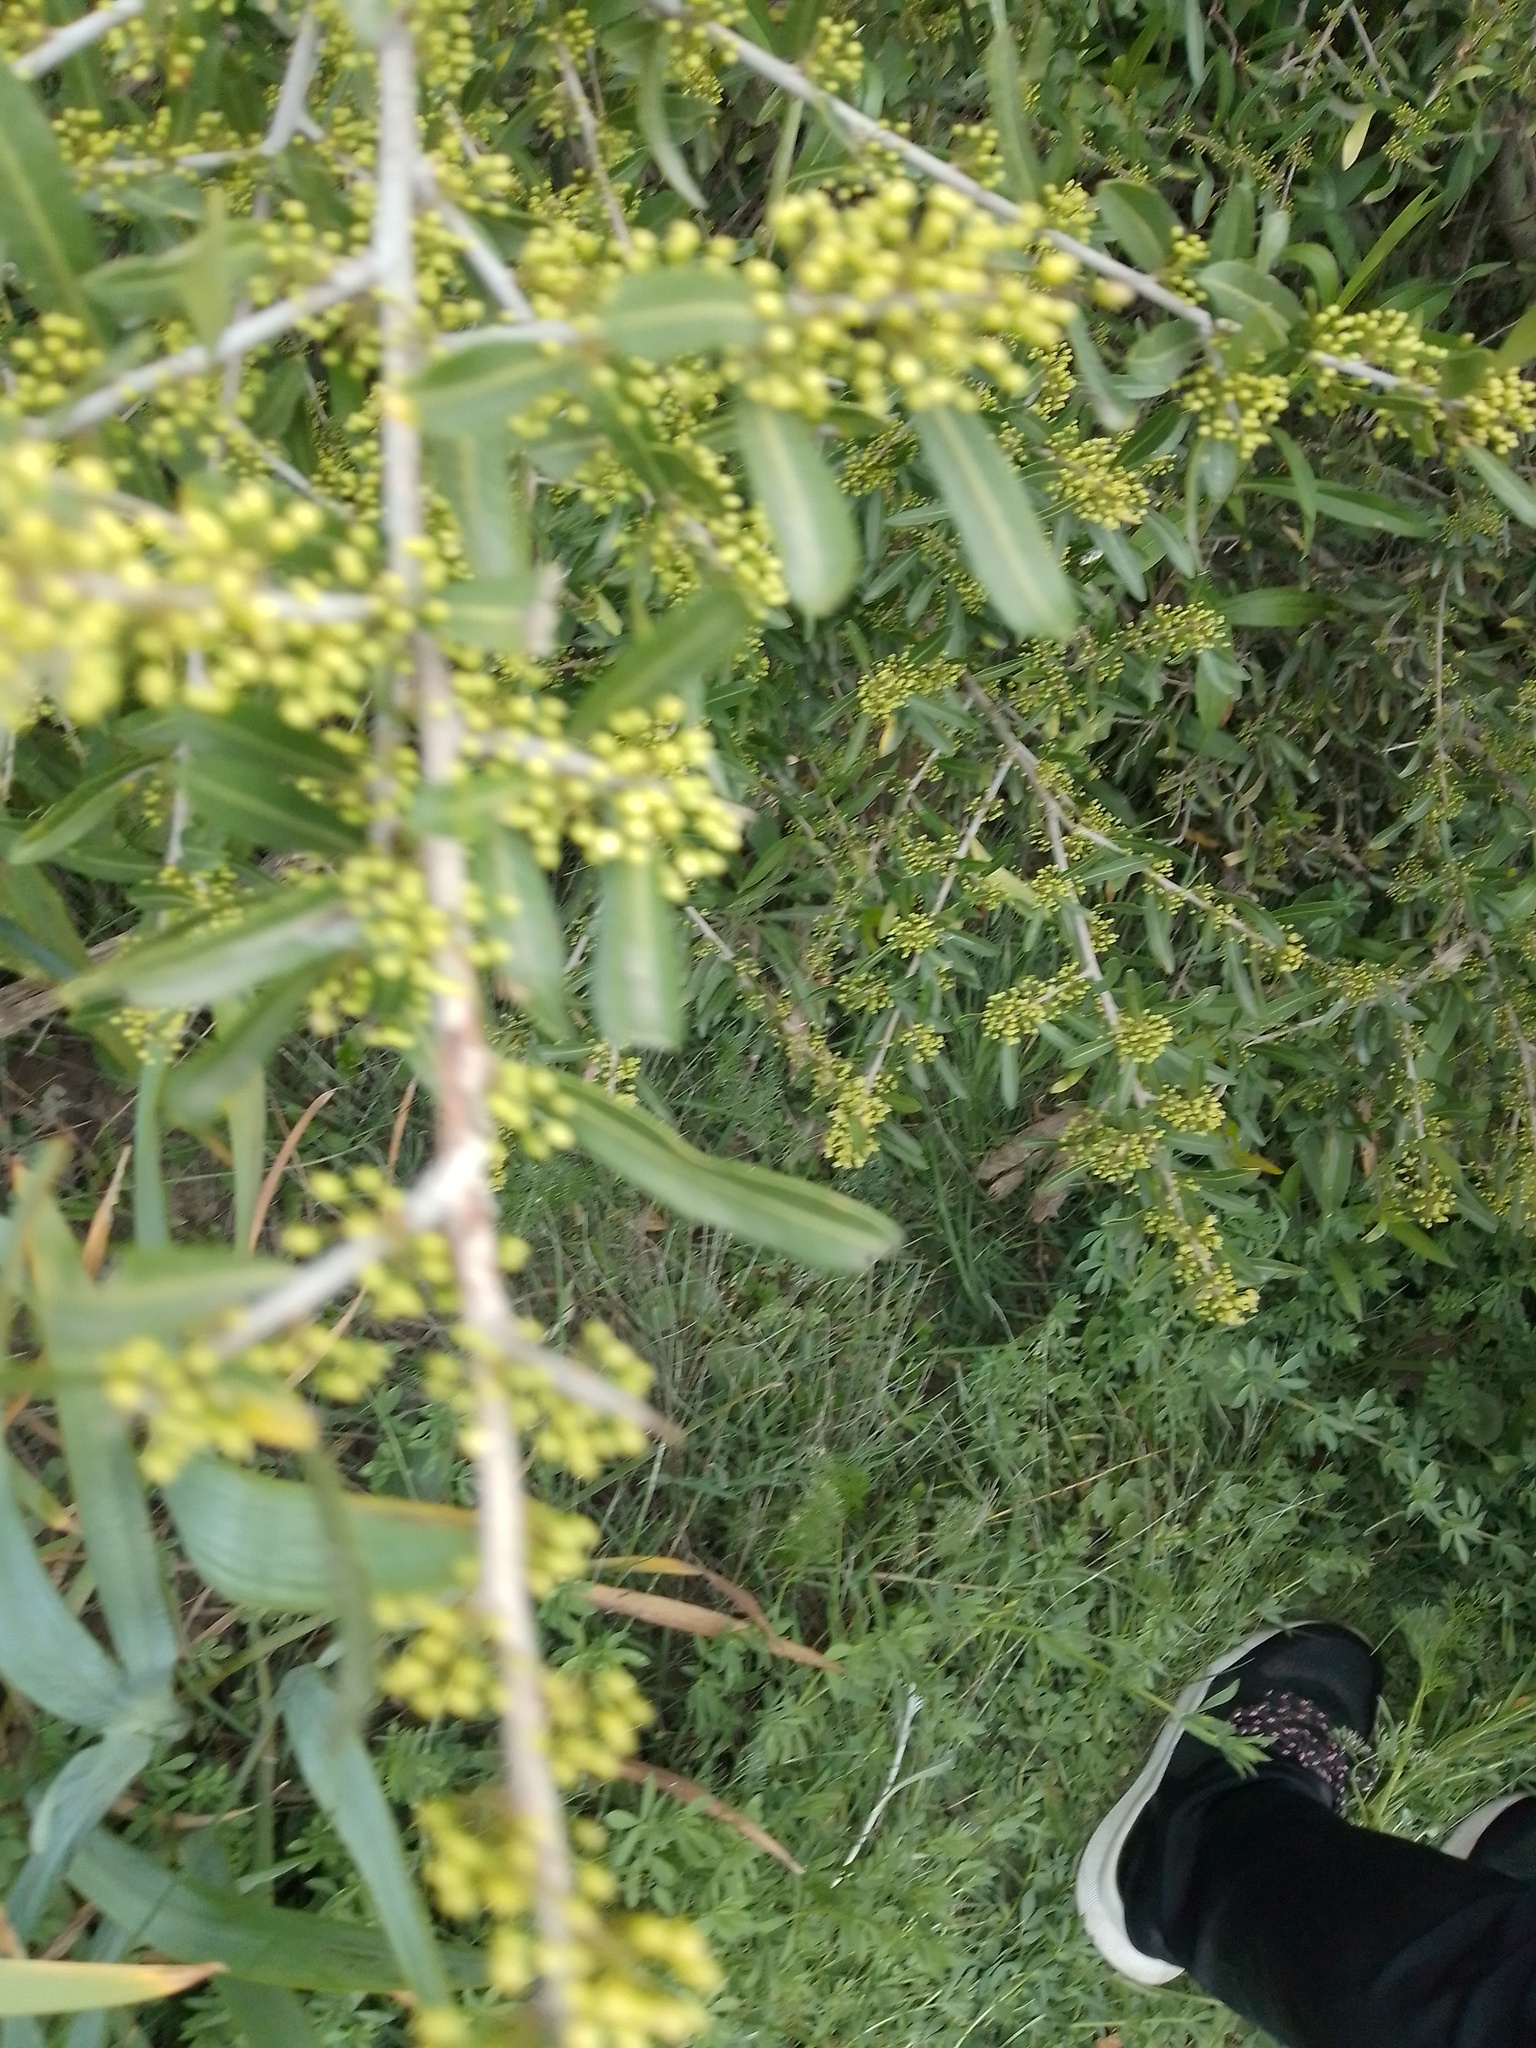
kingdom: Plantae
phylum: Tracheophyta
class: Magnoliopsida
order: Sapindales
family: Anacardiaceae
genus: Schinus
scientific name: Schinus longifolia
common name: Longleaf peppertree
